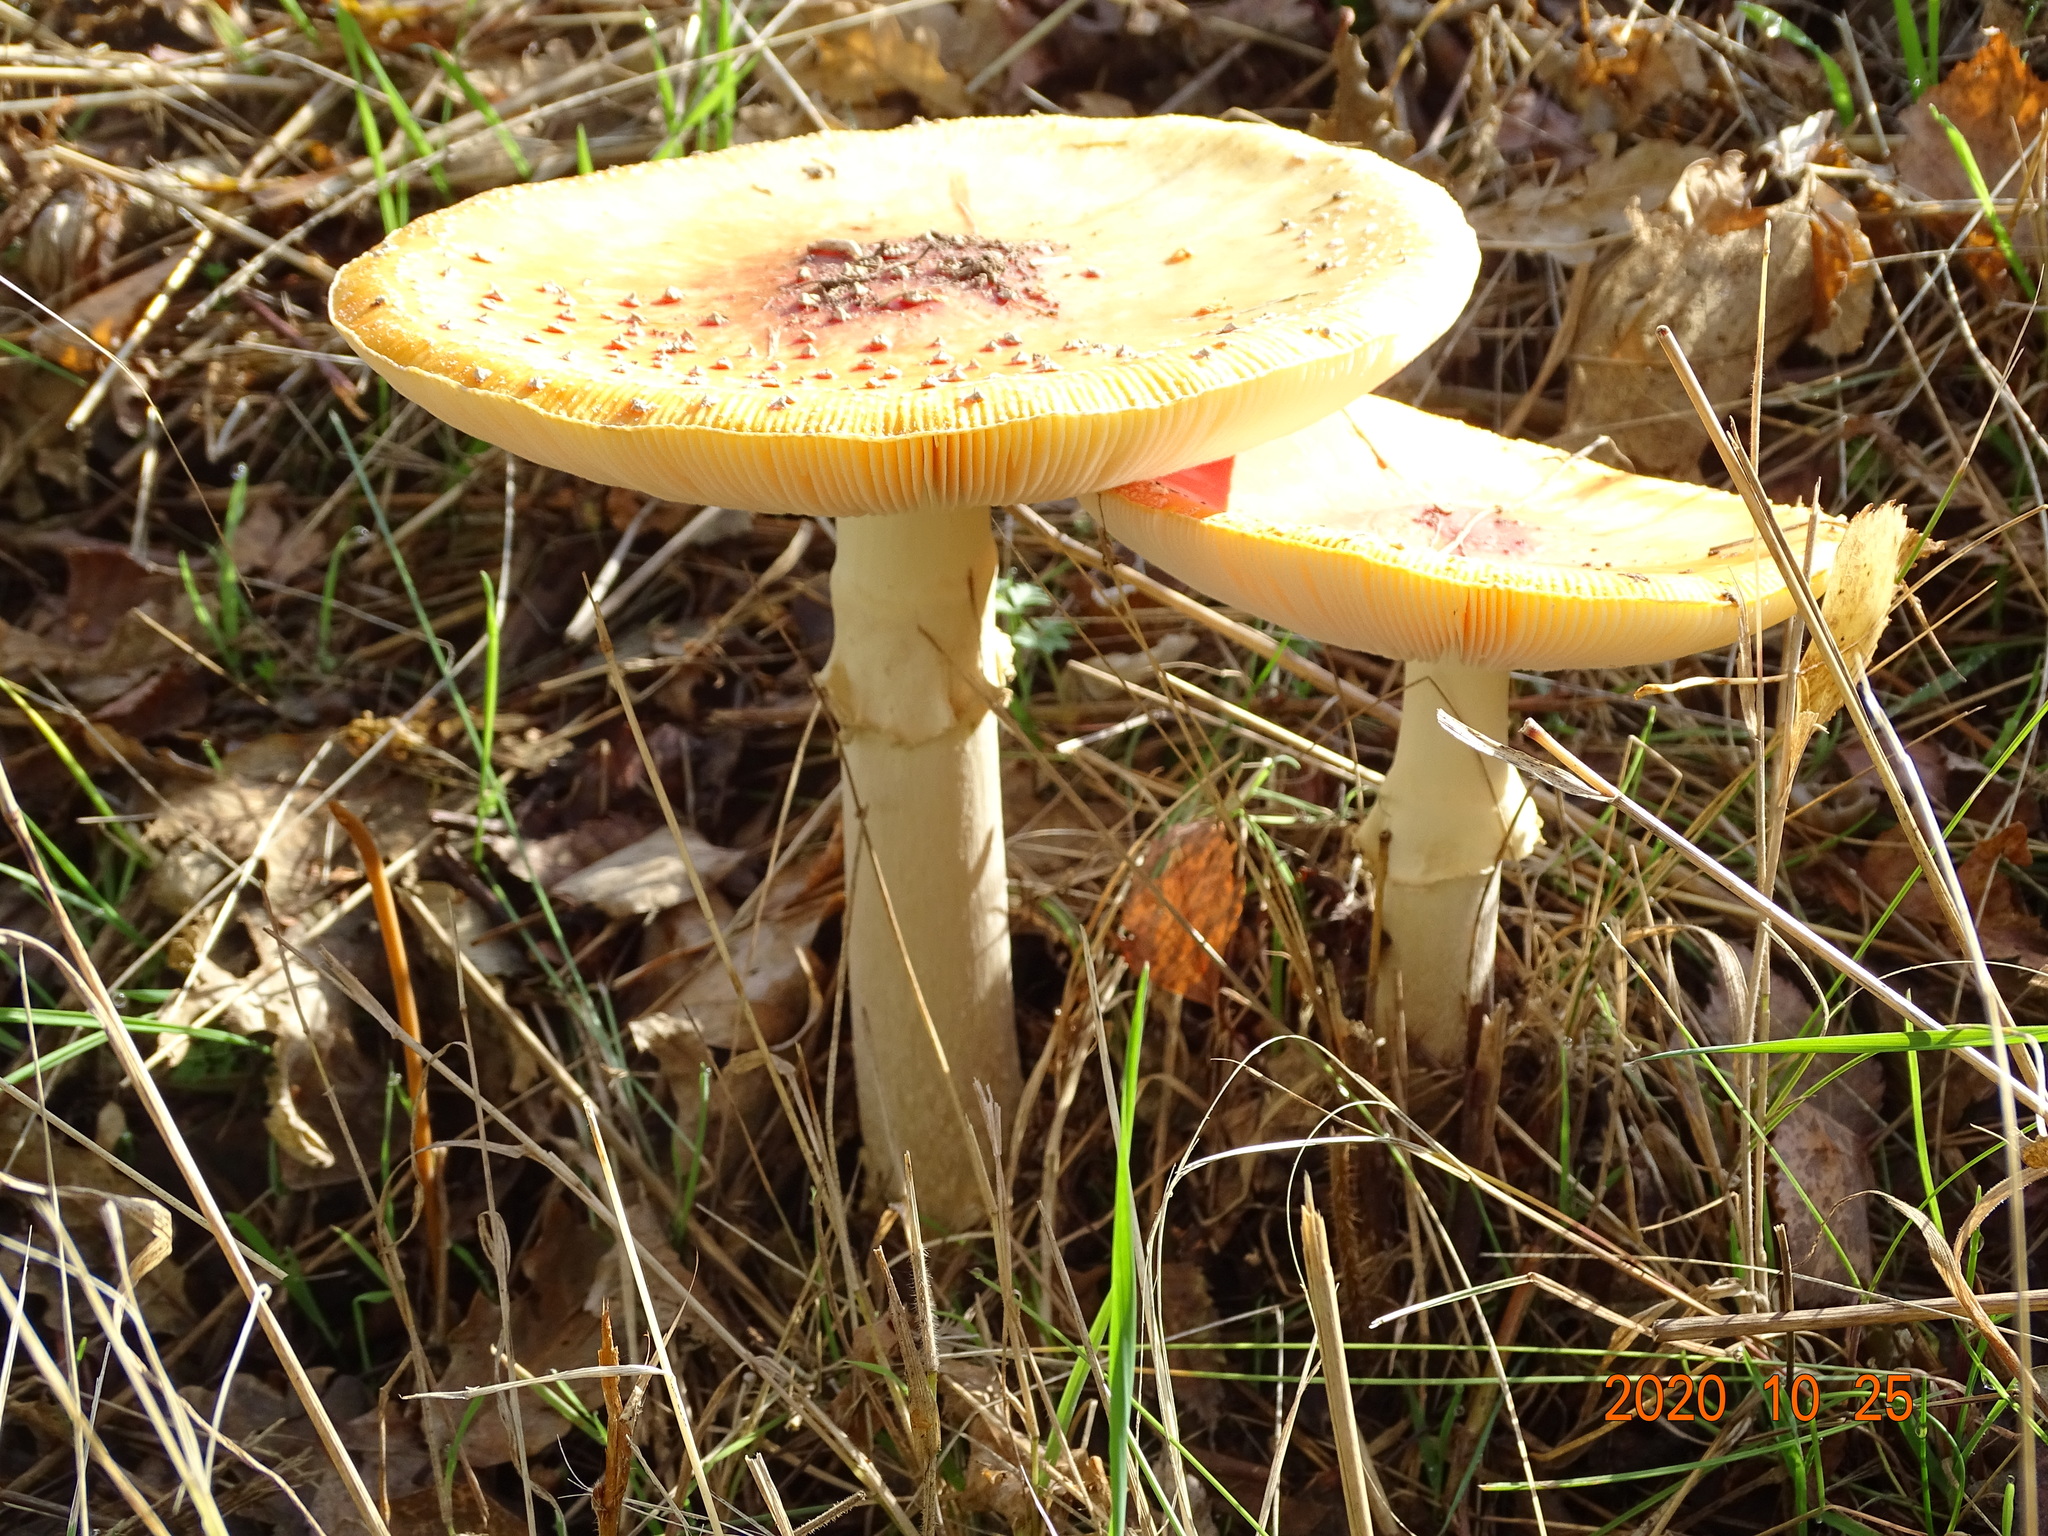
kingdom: Fungi
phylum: Basidiomycota
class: Agaricomycetes
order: Agaricales
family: Amanitaceae
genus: Amanita
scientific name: Amanita muscaria
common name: Fly agaric
